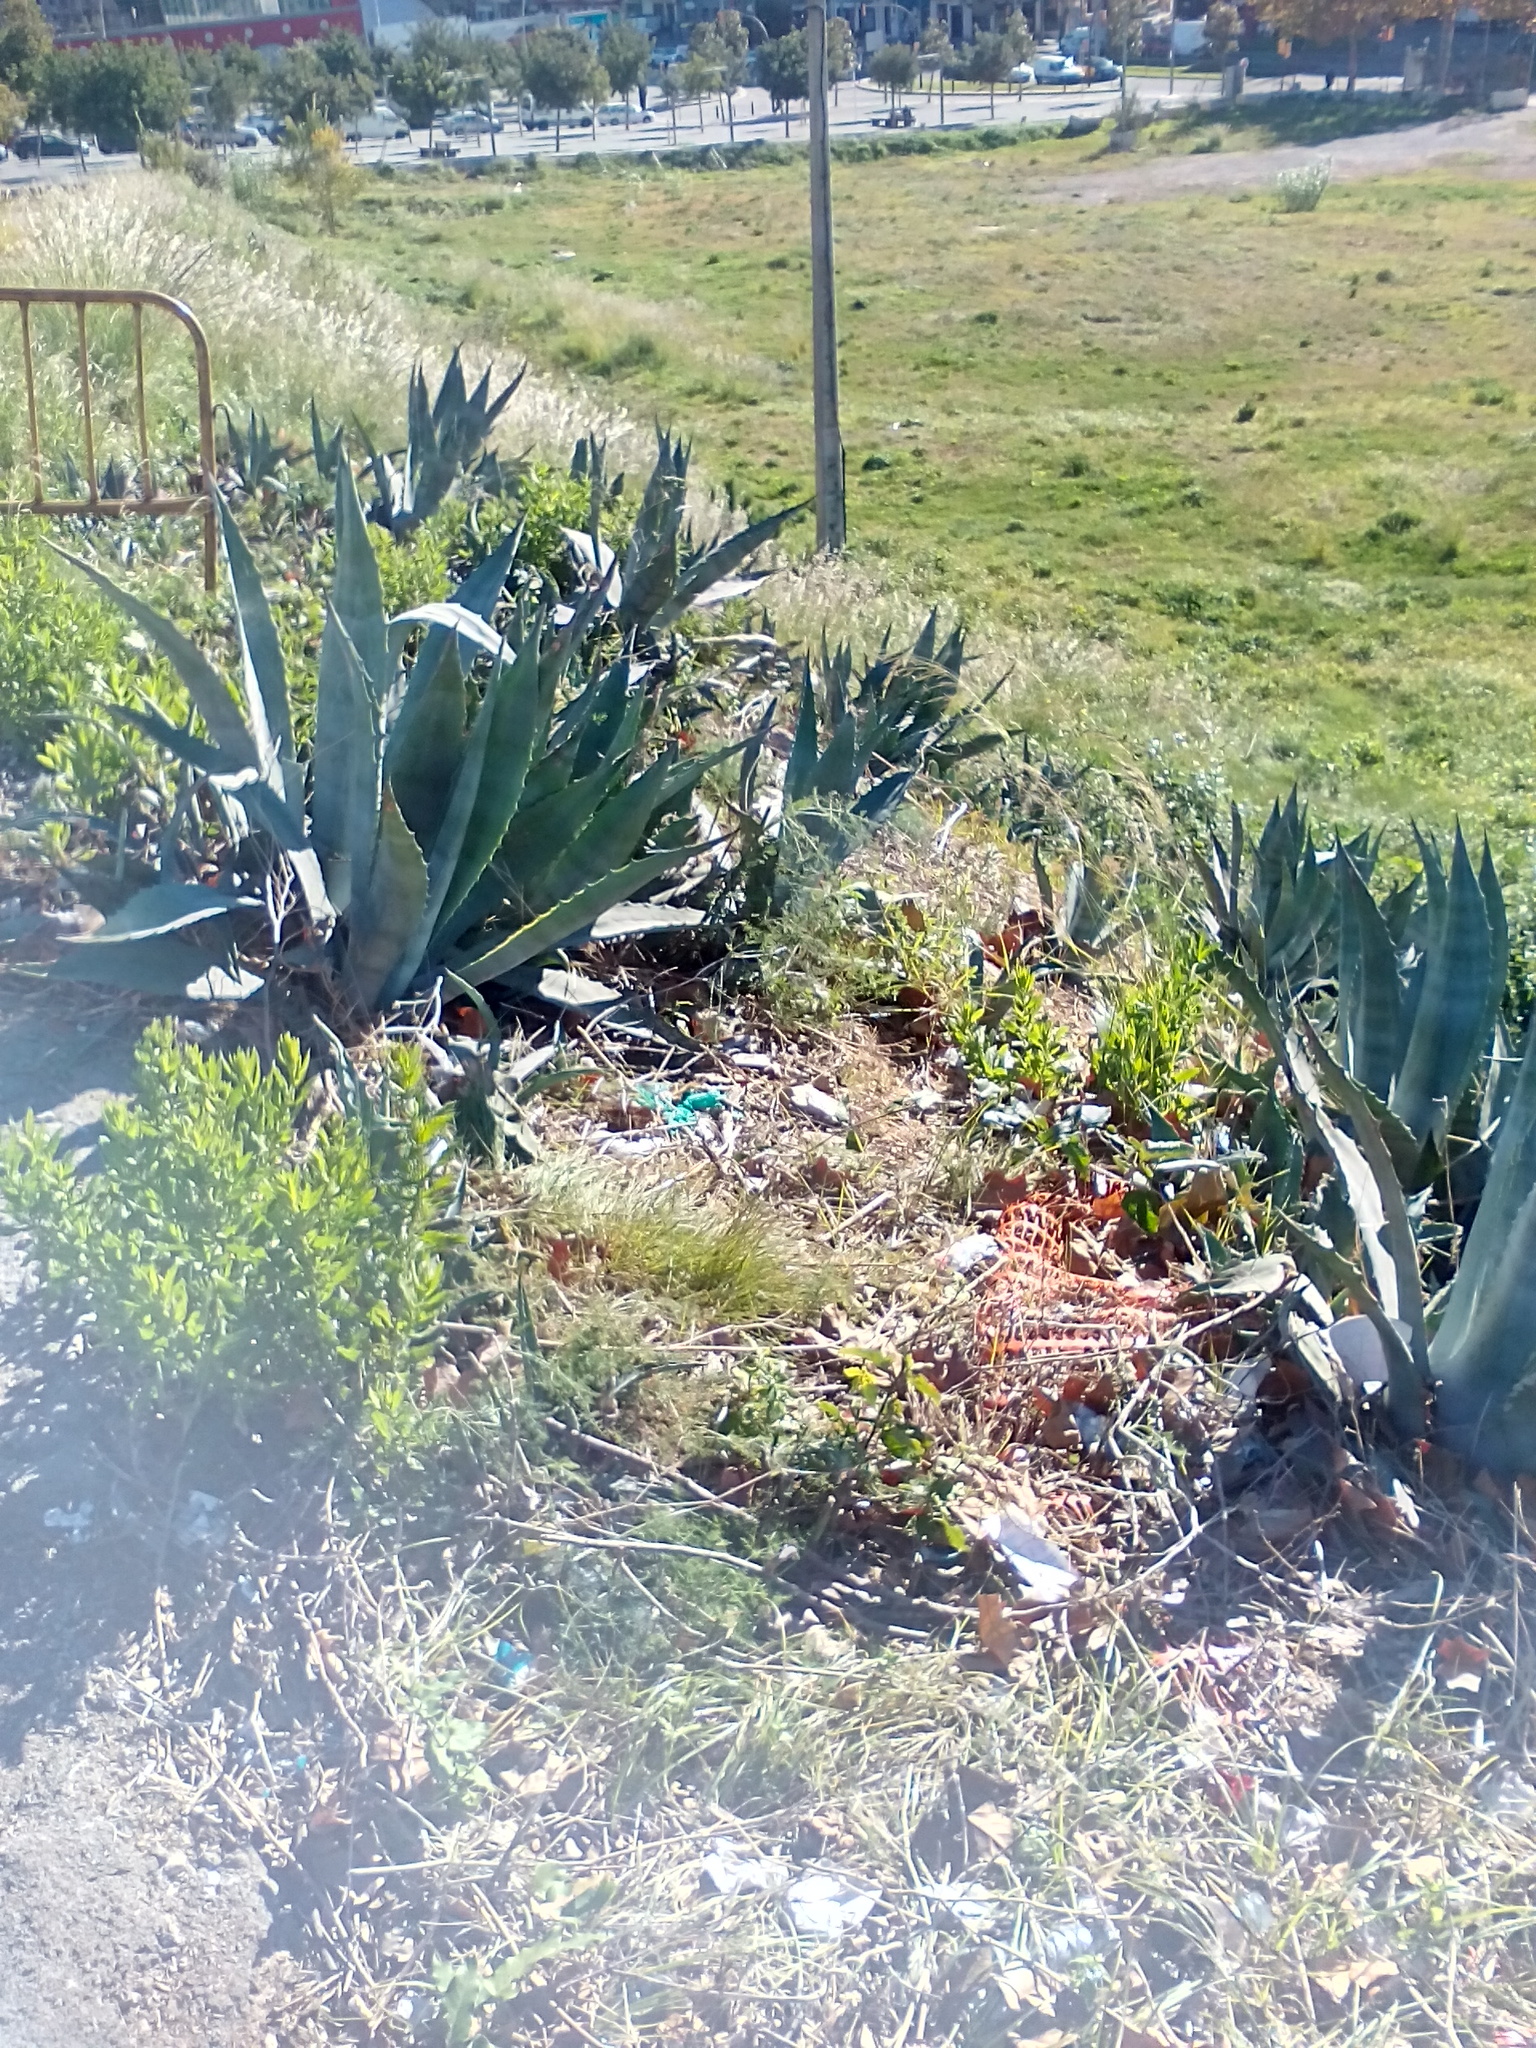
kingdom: Plantae
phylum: Tracheophyta
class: Liliopsida
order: Asparagales
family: Asparagaceae
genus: Agave
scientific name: Agave americana
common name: Centuryplant
